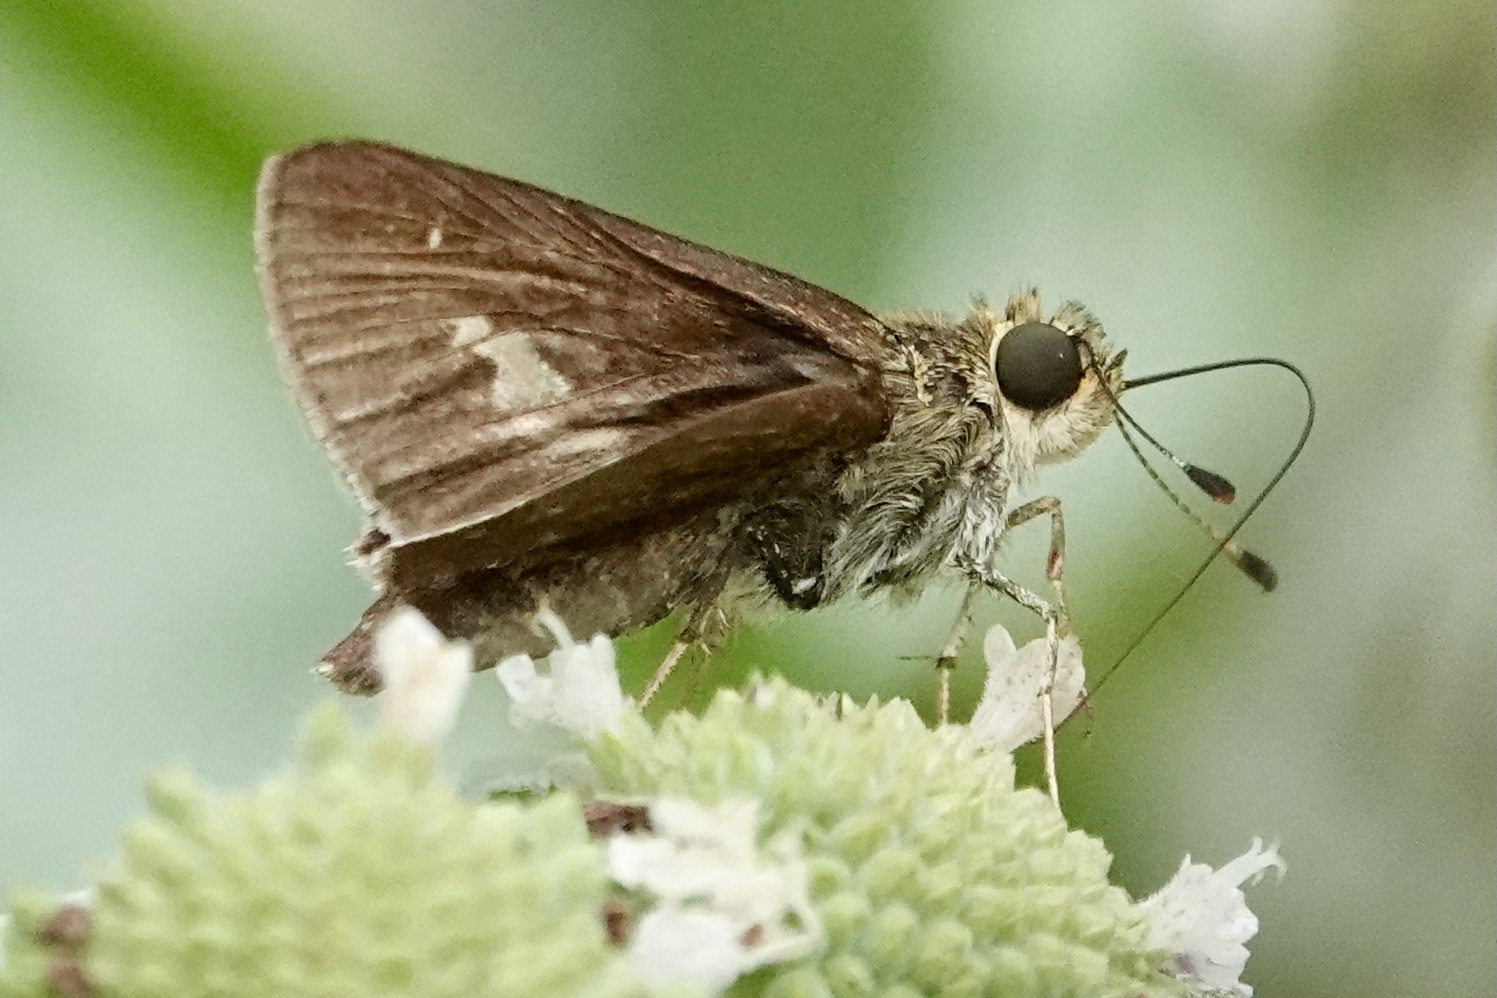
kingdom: Animalia
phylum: Arthropoda
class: Insecta
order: Lepidoptera
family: Hesperiidae
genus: Vernia
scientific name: Vernia verna
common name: Little glassywing
